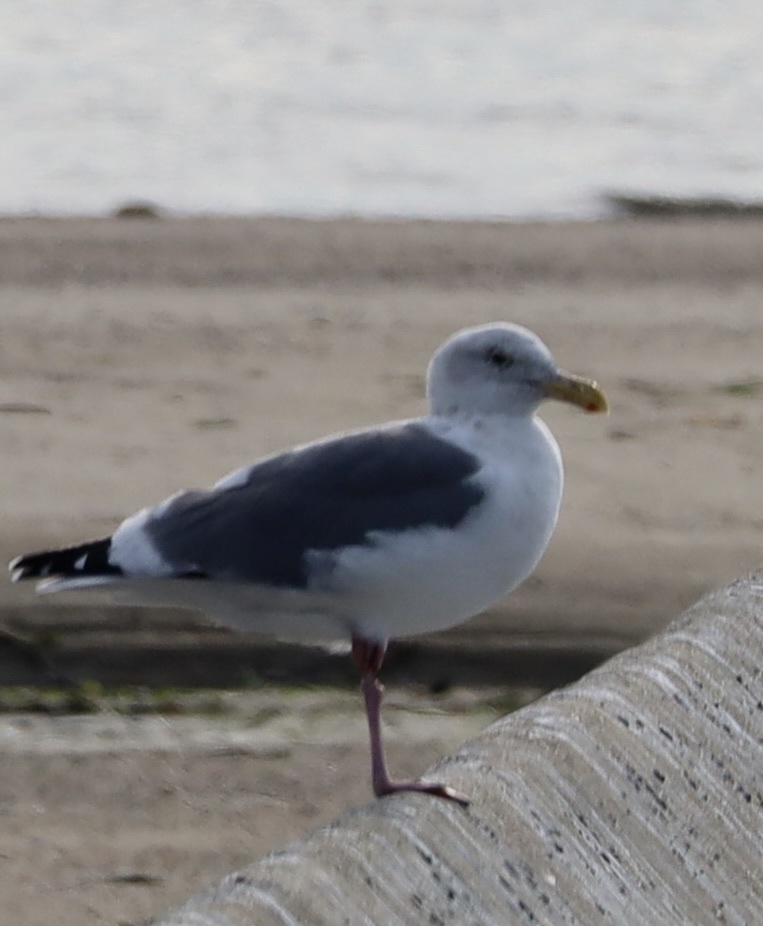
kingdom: Animalia
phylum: Chordata
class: Aves
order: Charadriiformes
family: Laridae
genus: Larus
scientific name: Larus occidentalis
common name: Western gull
